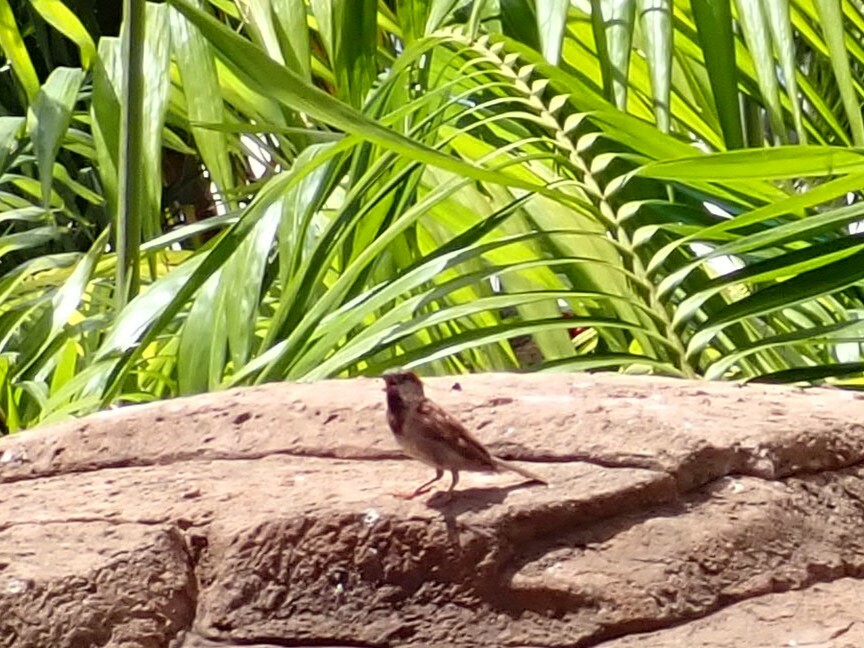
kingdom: Animalia
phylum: Chordata
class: Aves
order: Passeriformes
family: Passeridae
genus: Passer
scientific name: Passer domesticus
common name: House sparrow
